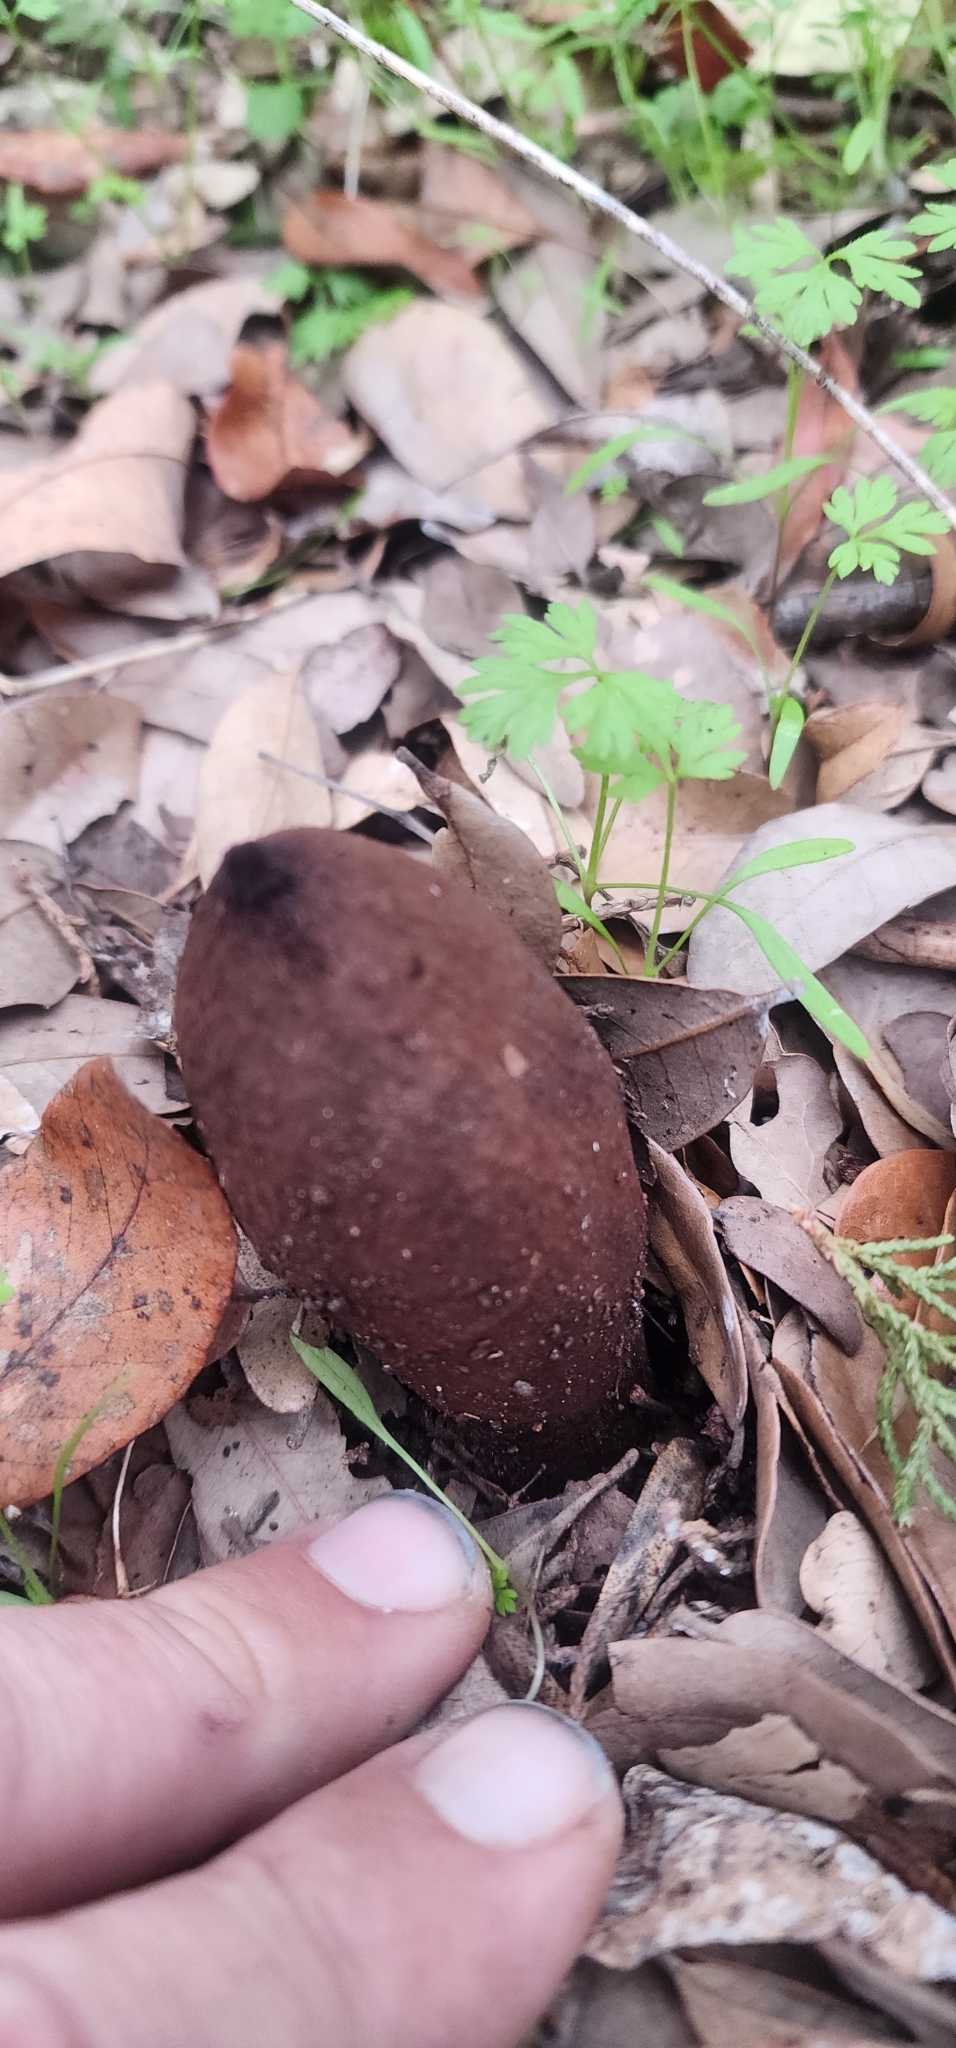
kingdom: Fungi
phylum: Ascomycota
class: Pezizomycetes
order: Pezizales
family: Chorioactidaceae
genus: Chorioactis
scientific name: Chorioactis geaster
